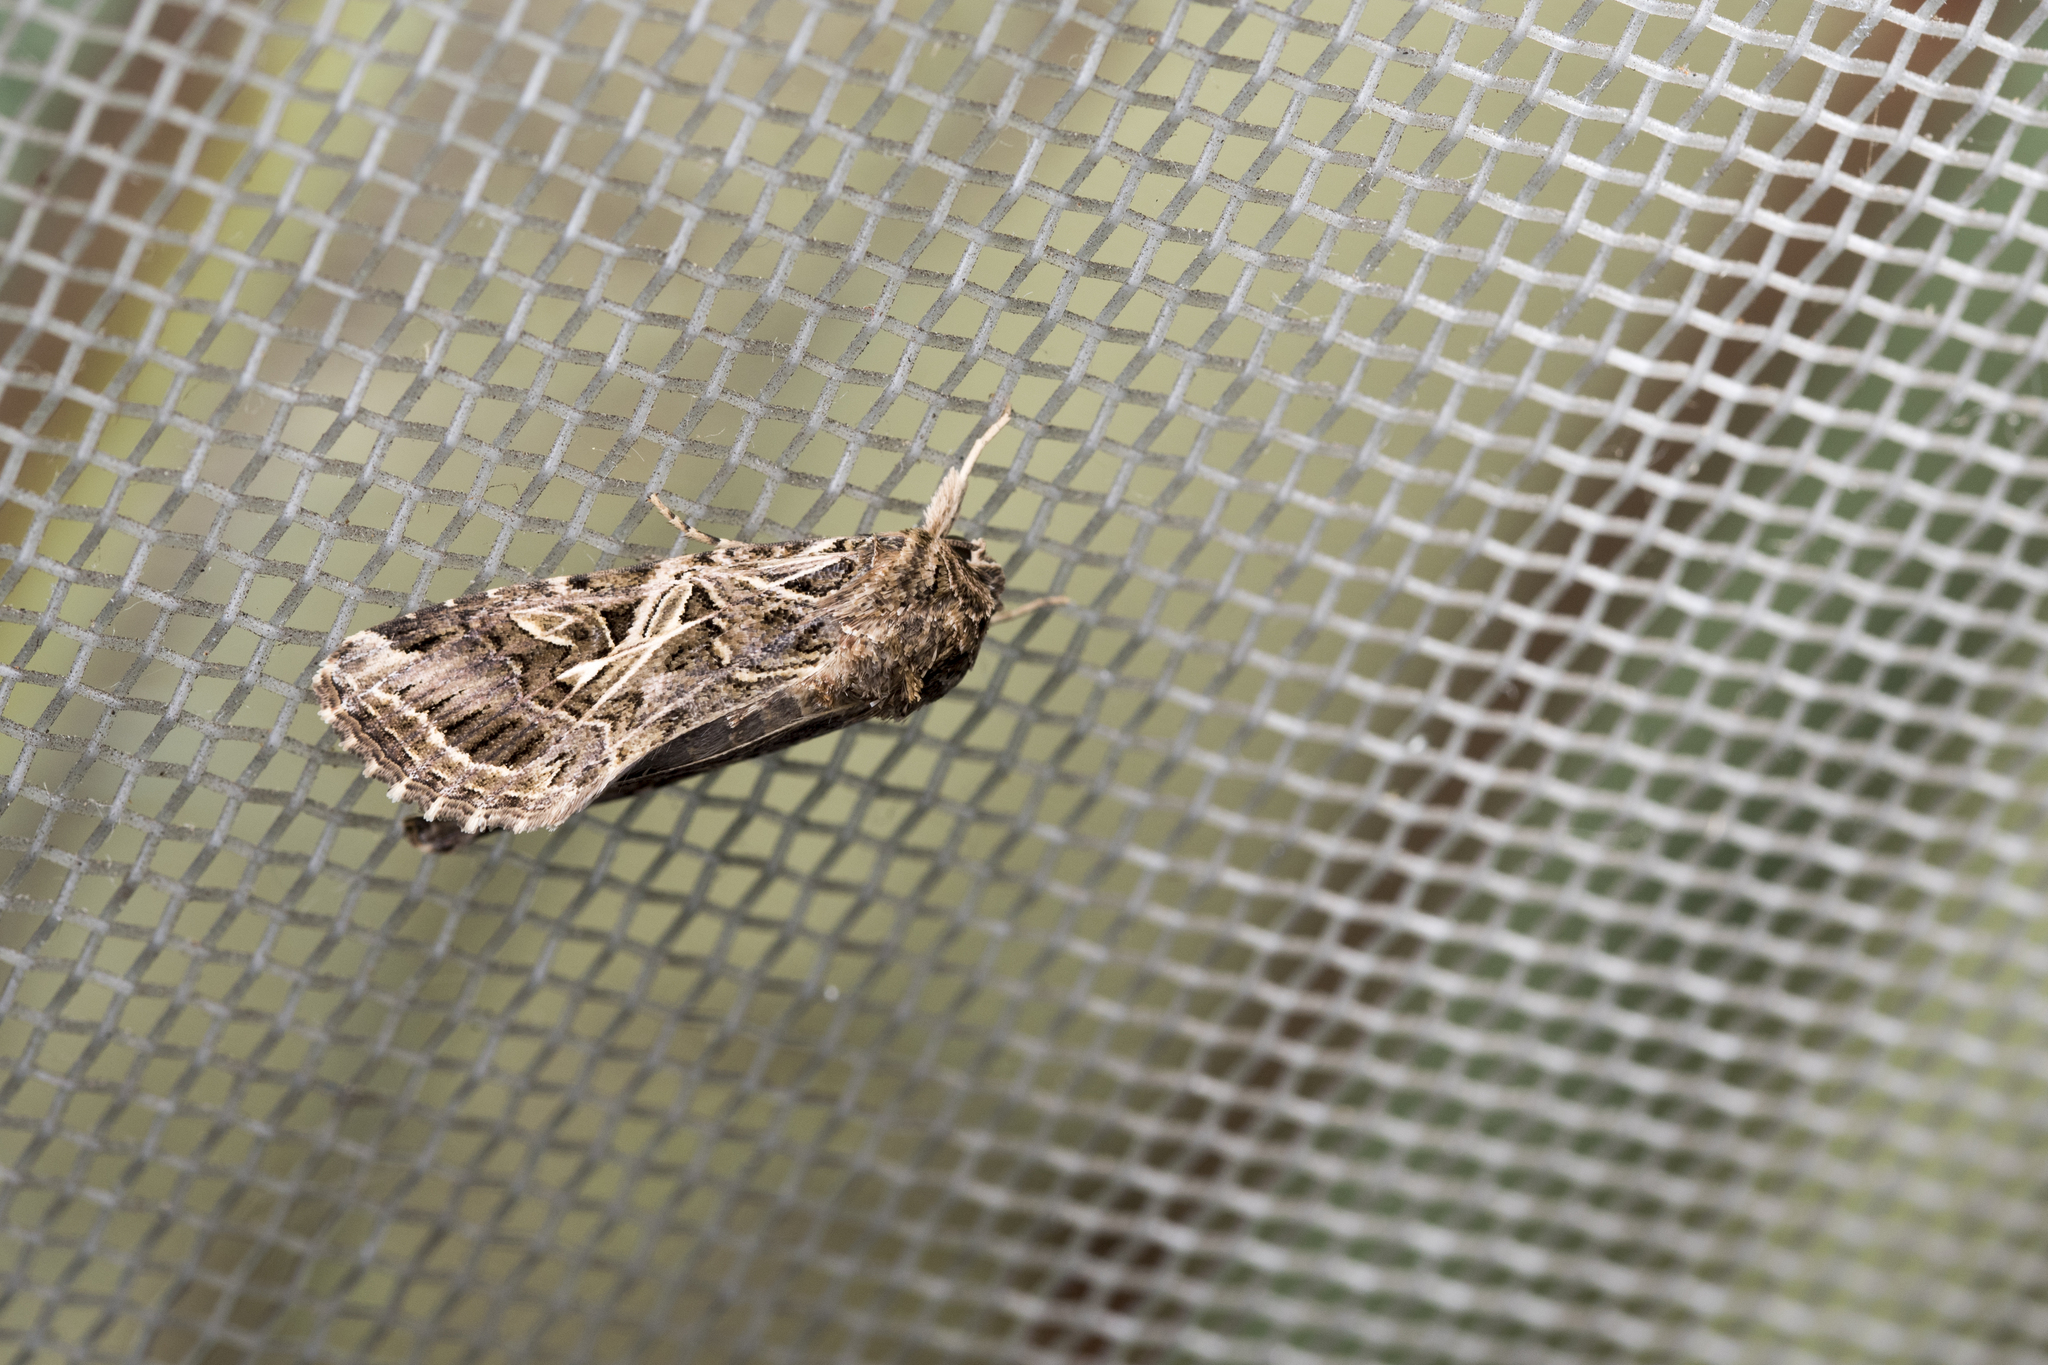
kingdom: Animalia
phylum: Arthropoda
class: Insecta
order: Lepidoptera
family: Noctuidae
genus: Spodoptera
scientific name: Spodoptera litura
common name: Asian cotton leafworm
